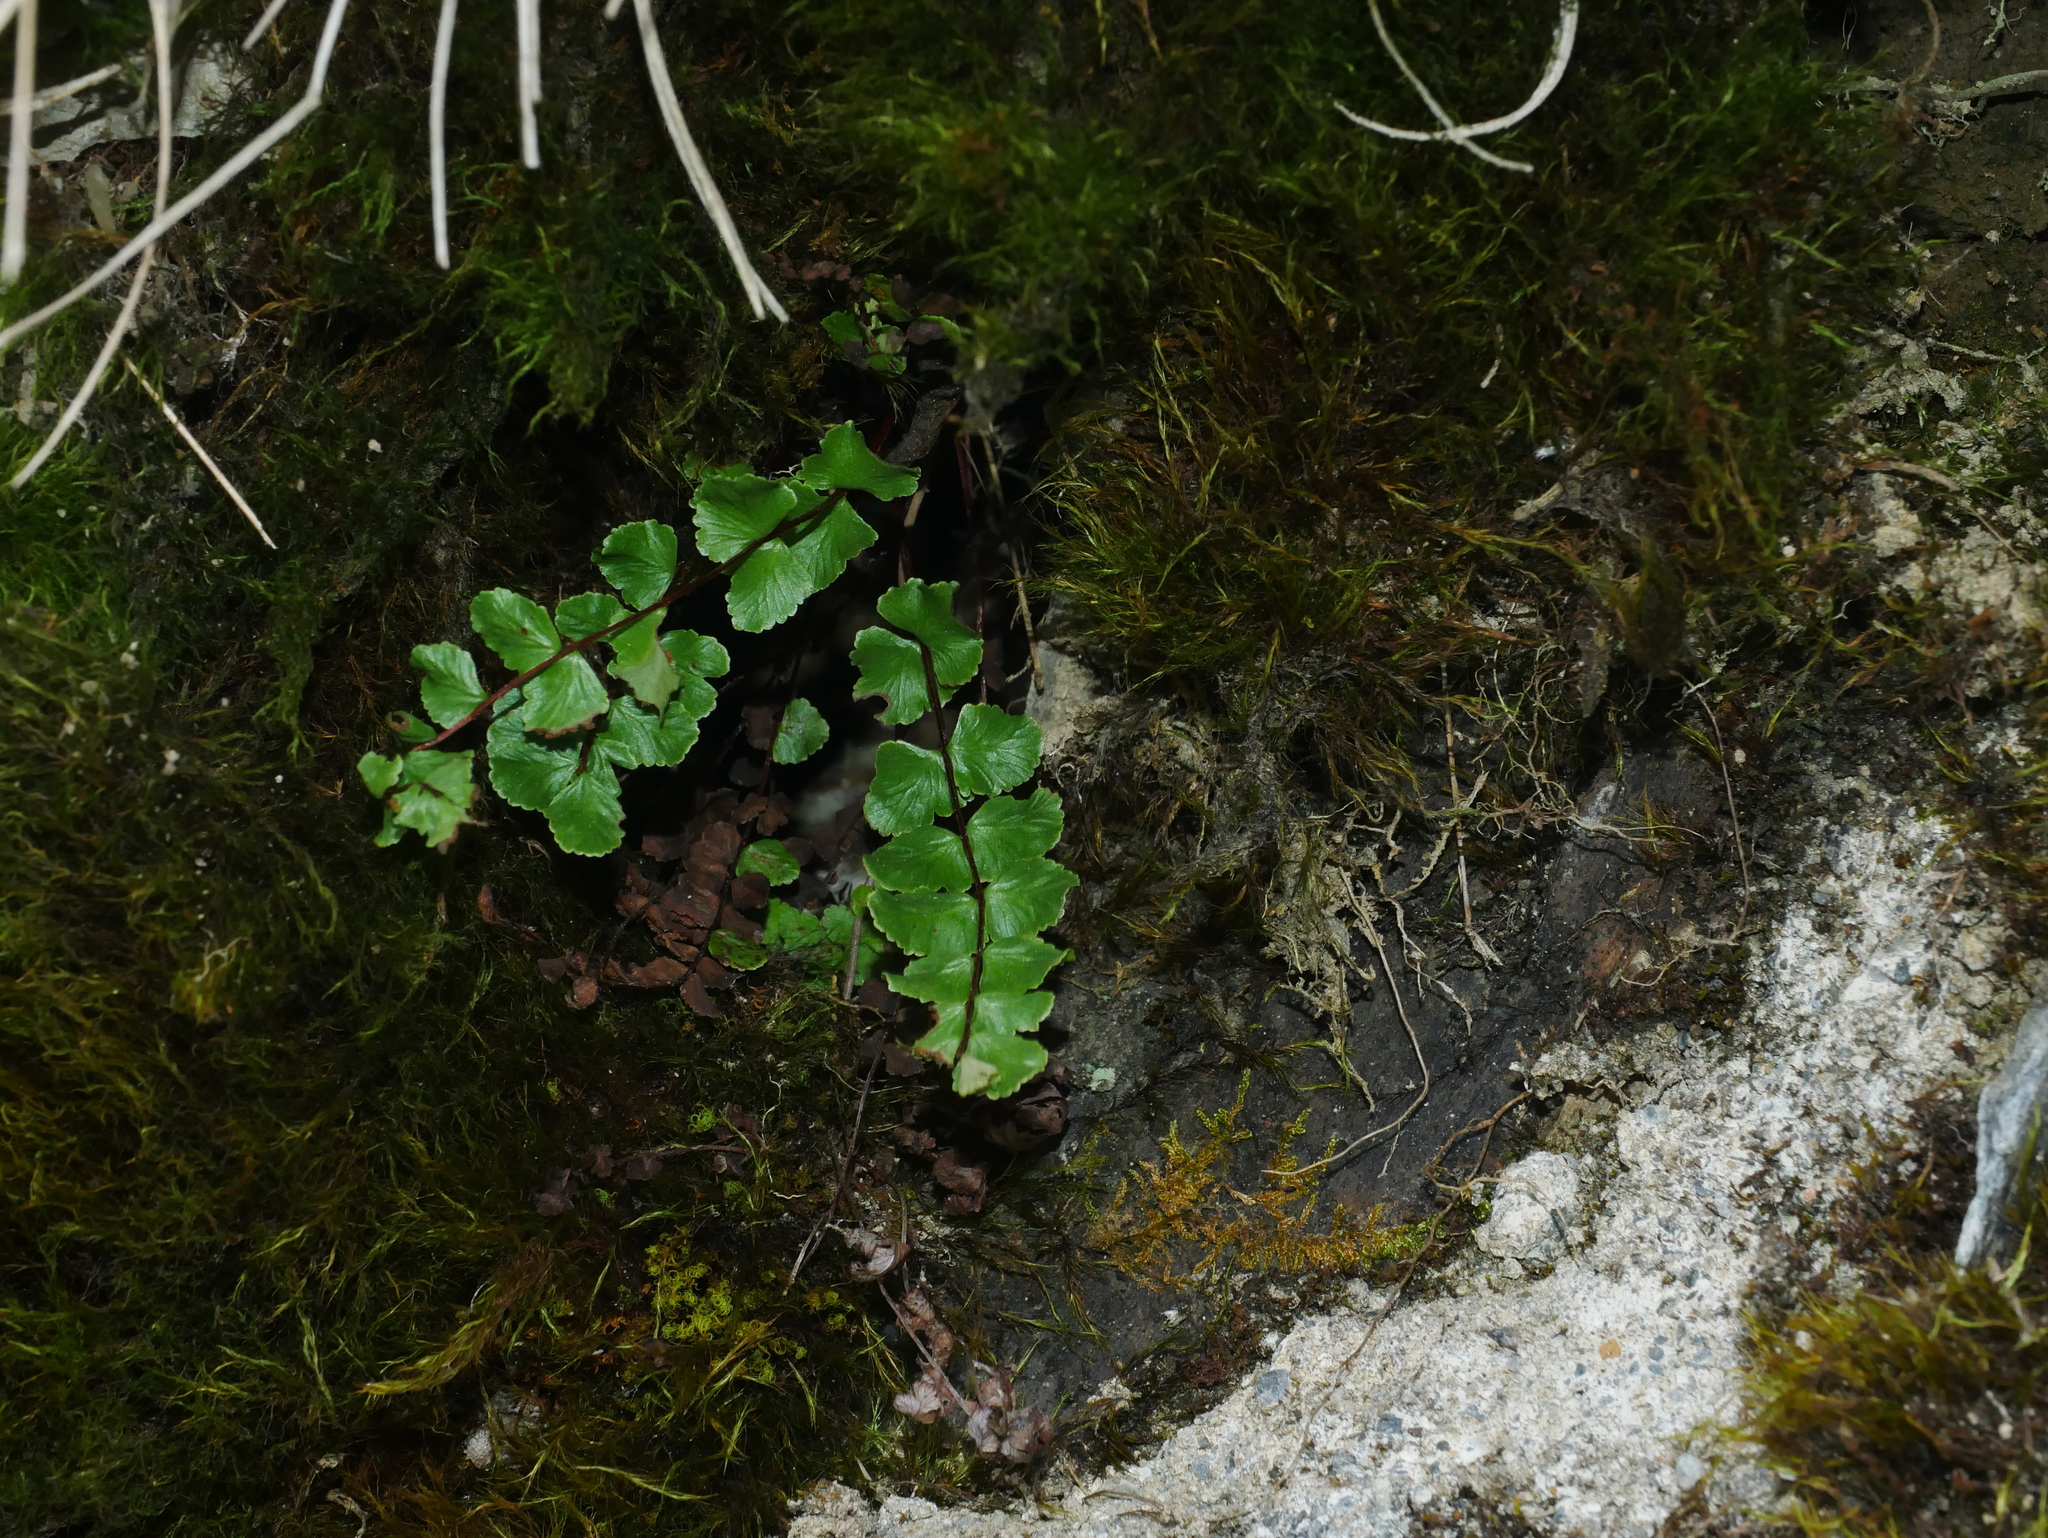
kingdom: Plantae
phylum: Tracheophyta
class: Polypodiopsida
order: Polypodiales
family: Aspleniaceae
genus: Asplenium
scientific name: Asplenium tripteropus
